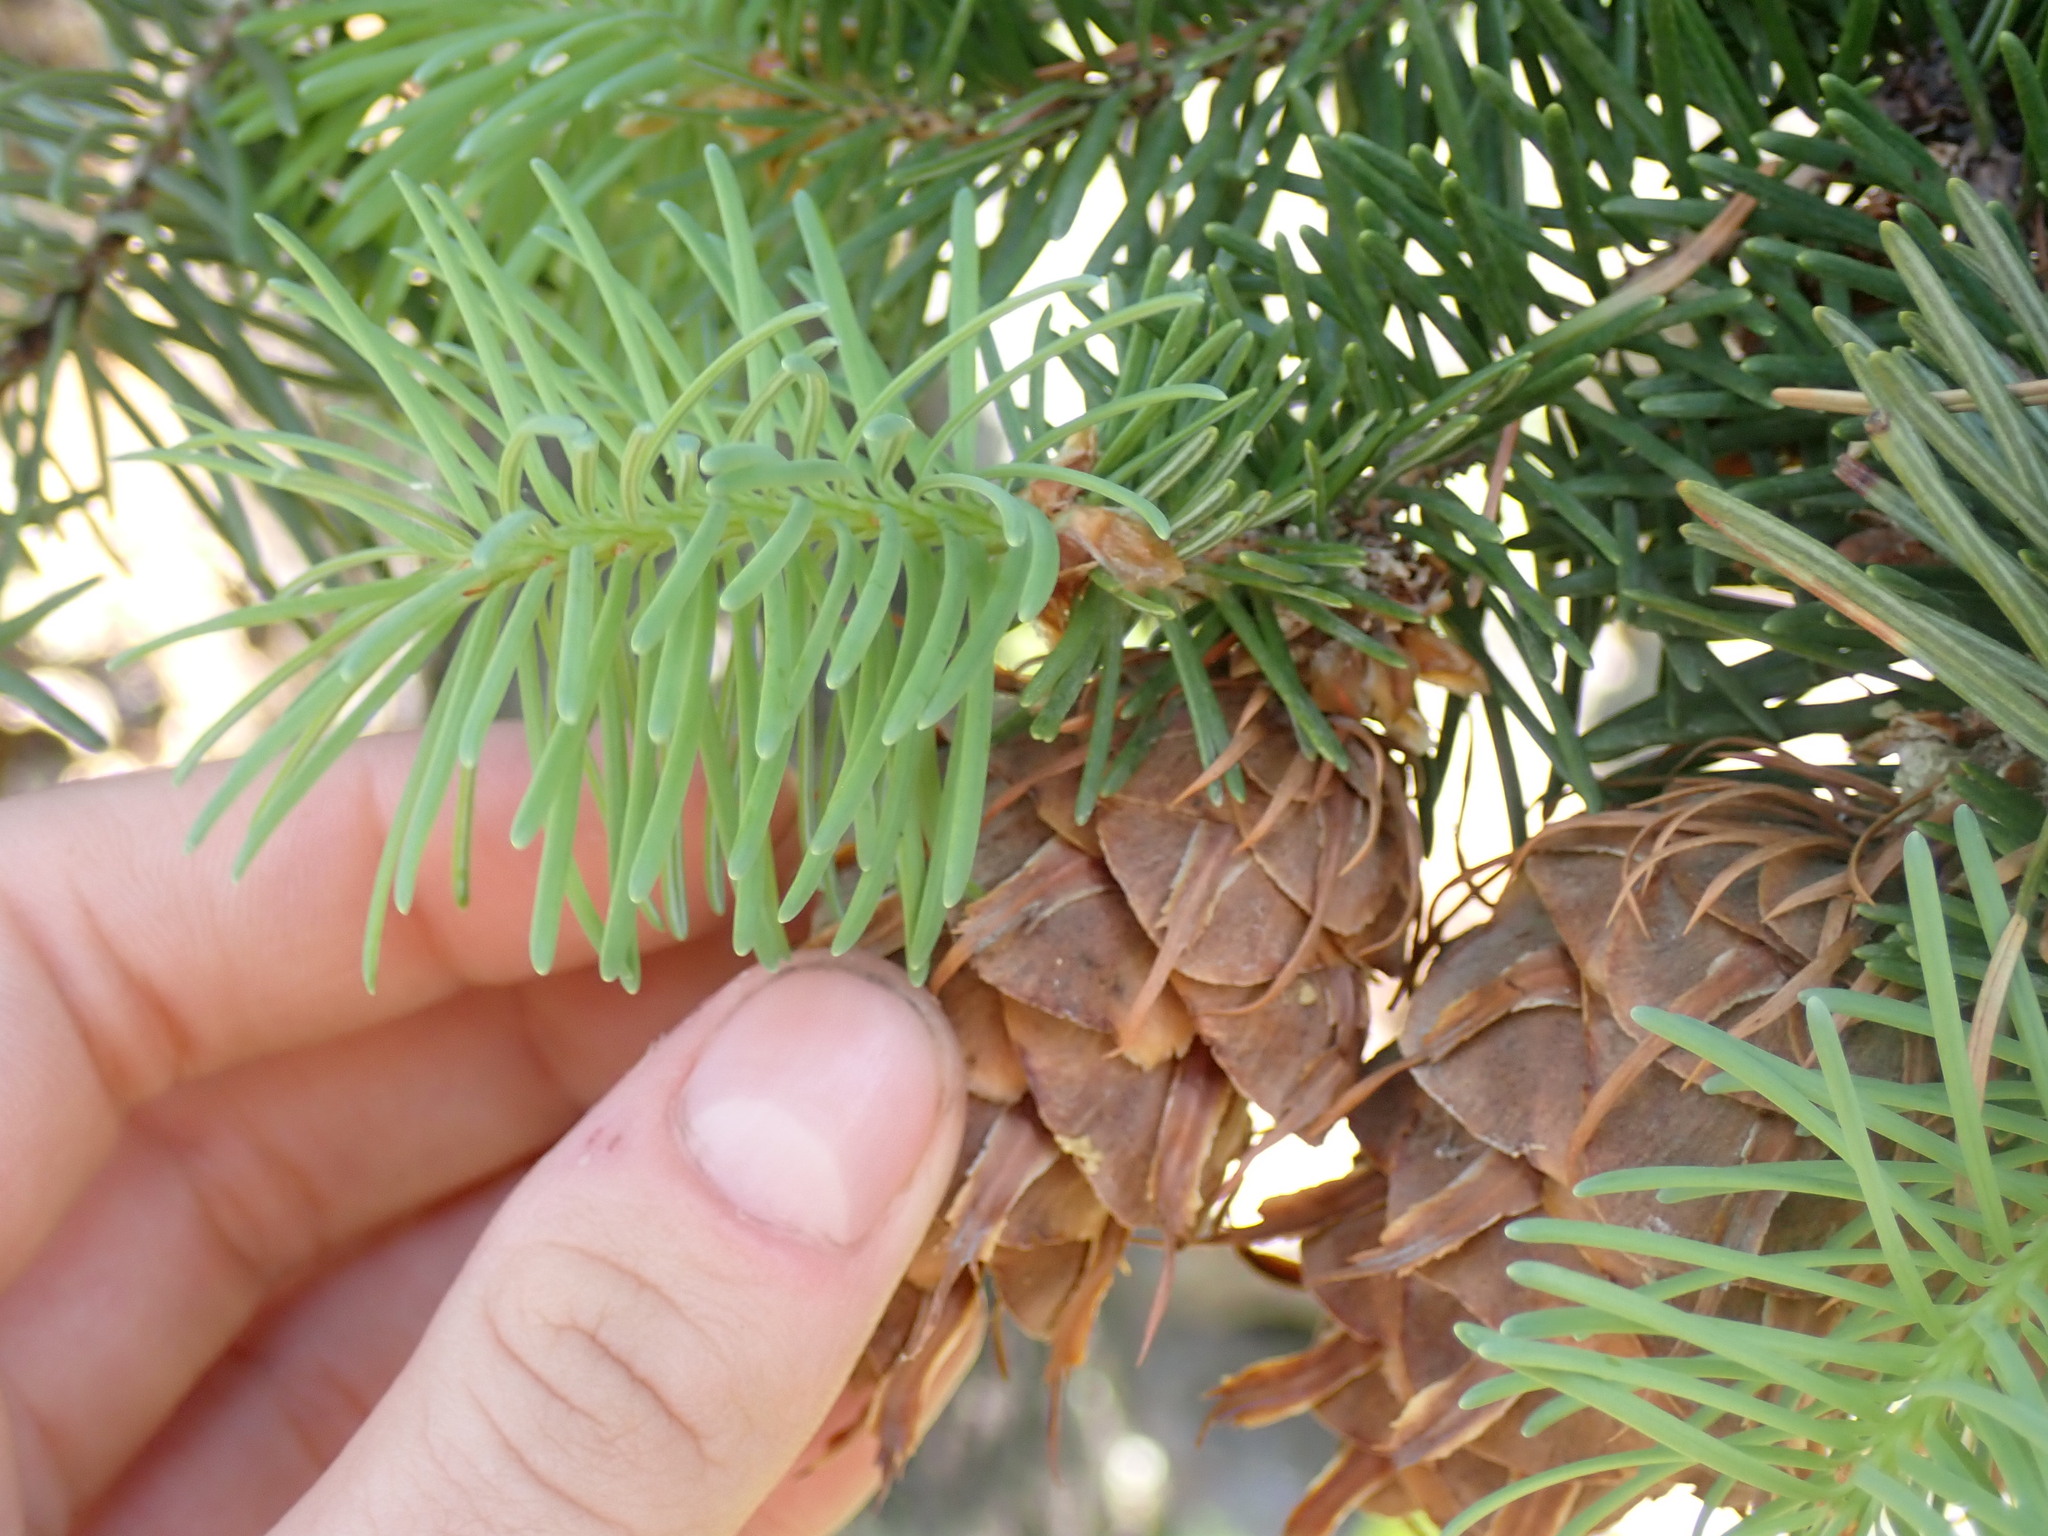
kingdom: Plantae
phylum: Tracheophyta
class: Pinopsida
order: Pinales
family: Pinaceae
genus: Pseudotsuga
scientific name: Pseudotsuga menziesii
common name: Douglas fir
